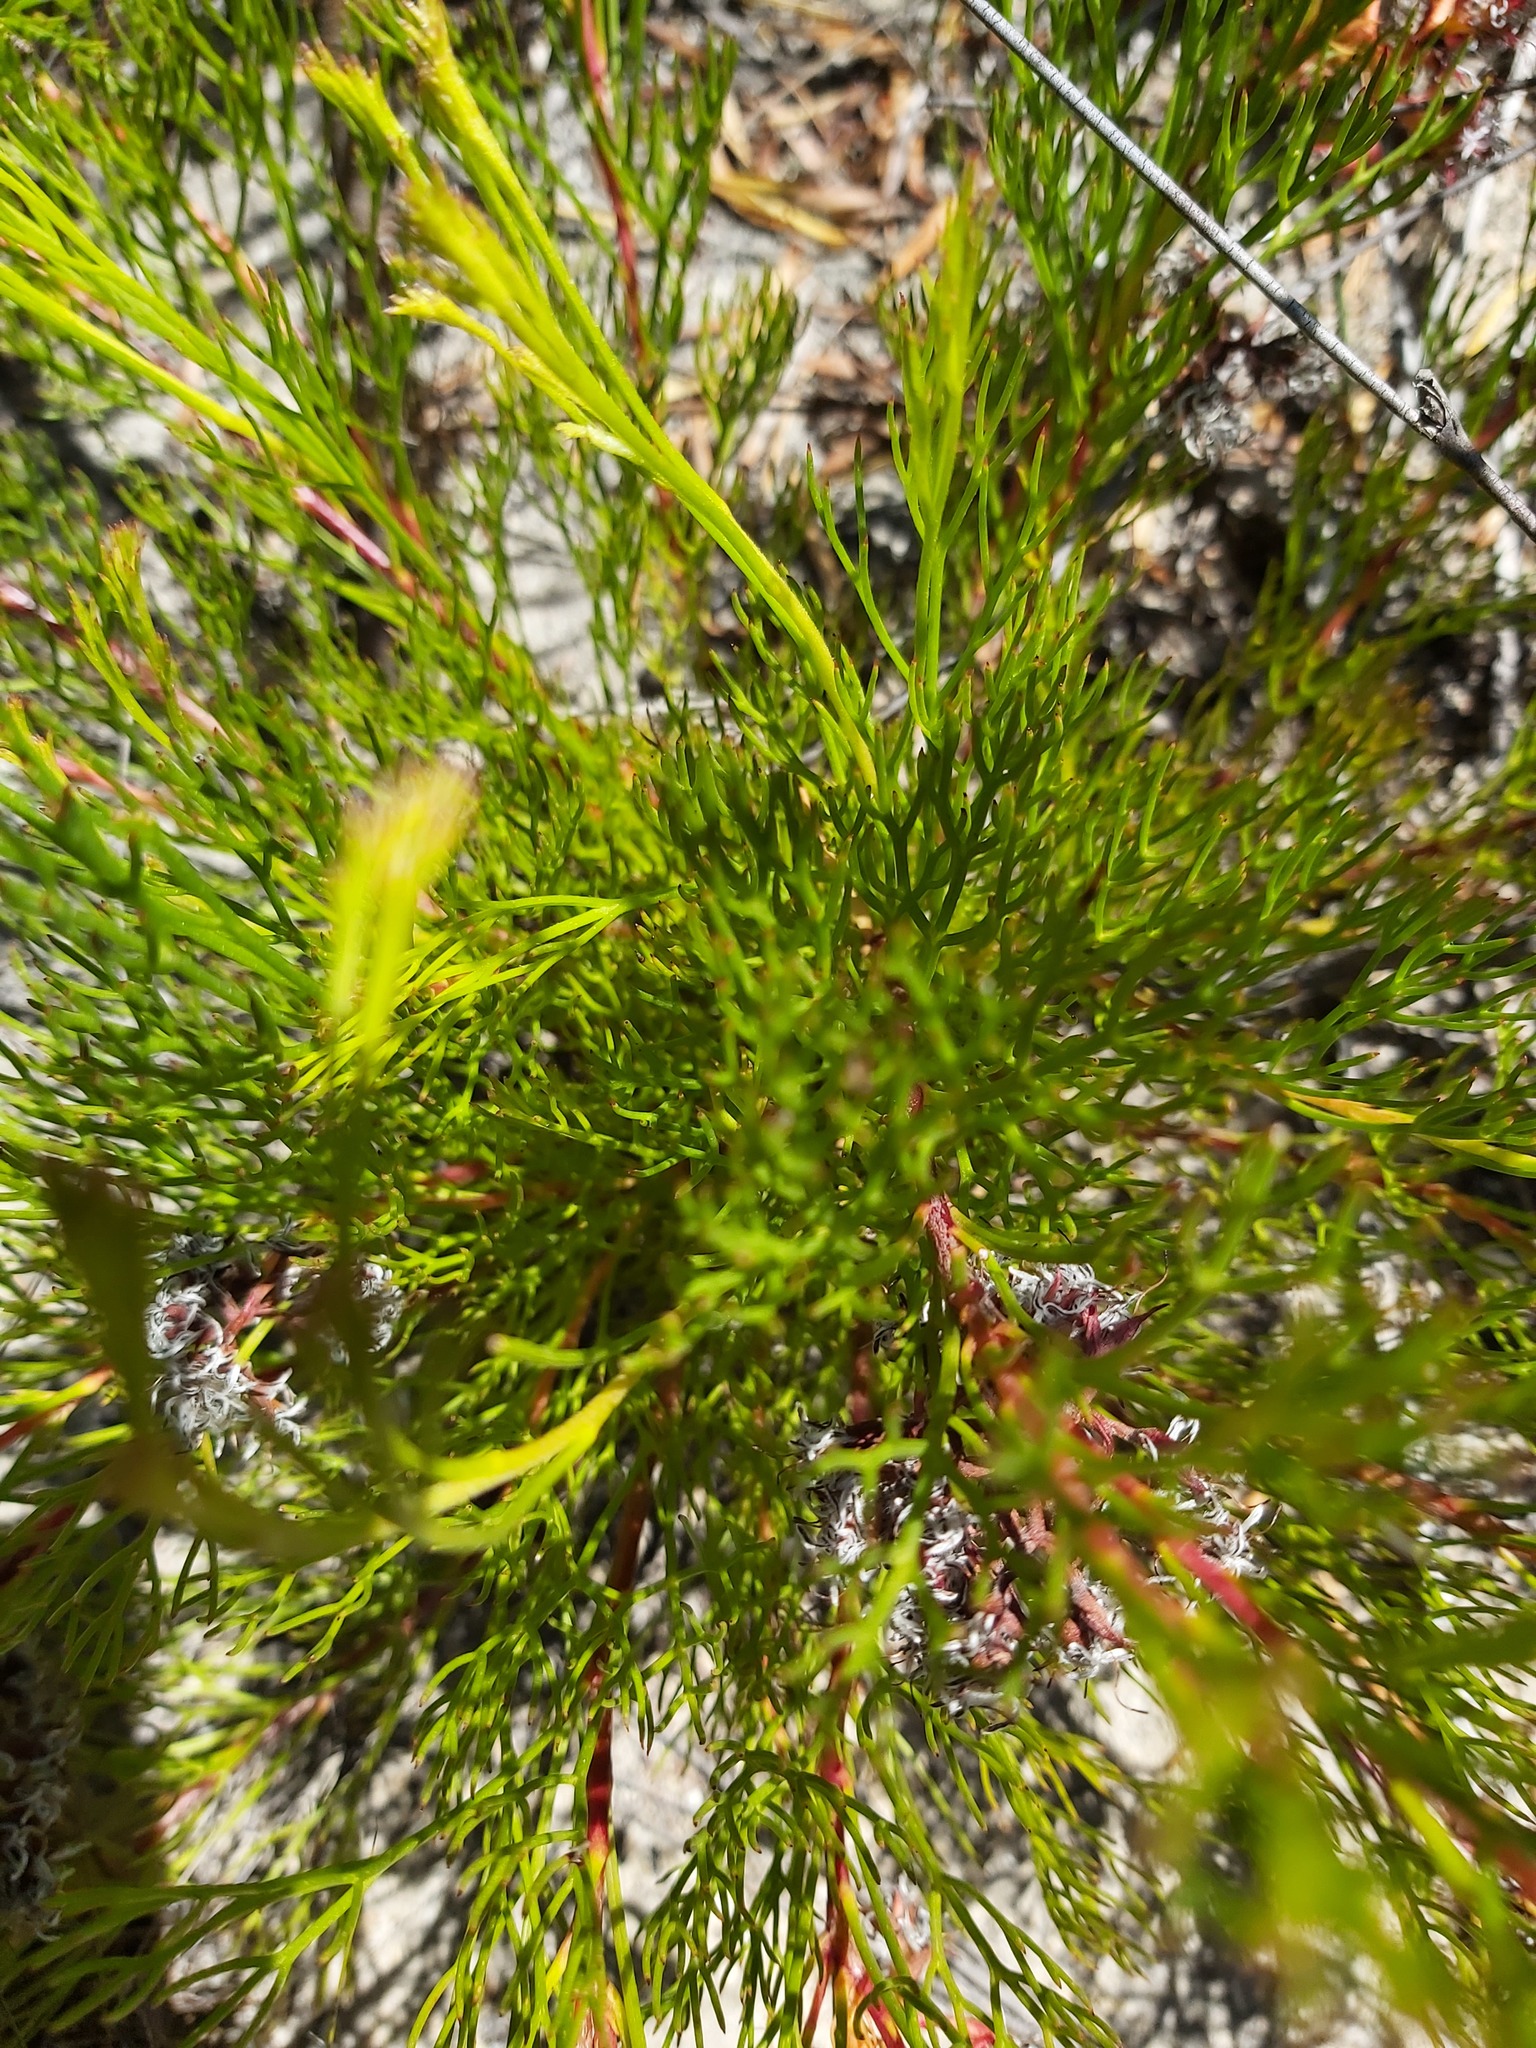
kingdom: Plantae
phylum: Tracheophyta
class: Magnoliopsida
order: Proteales
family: Proteaceae
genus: Serruria
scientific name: Serruria rubricaulis
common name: Red-stem spiderhead
